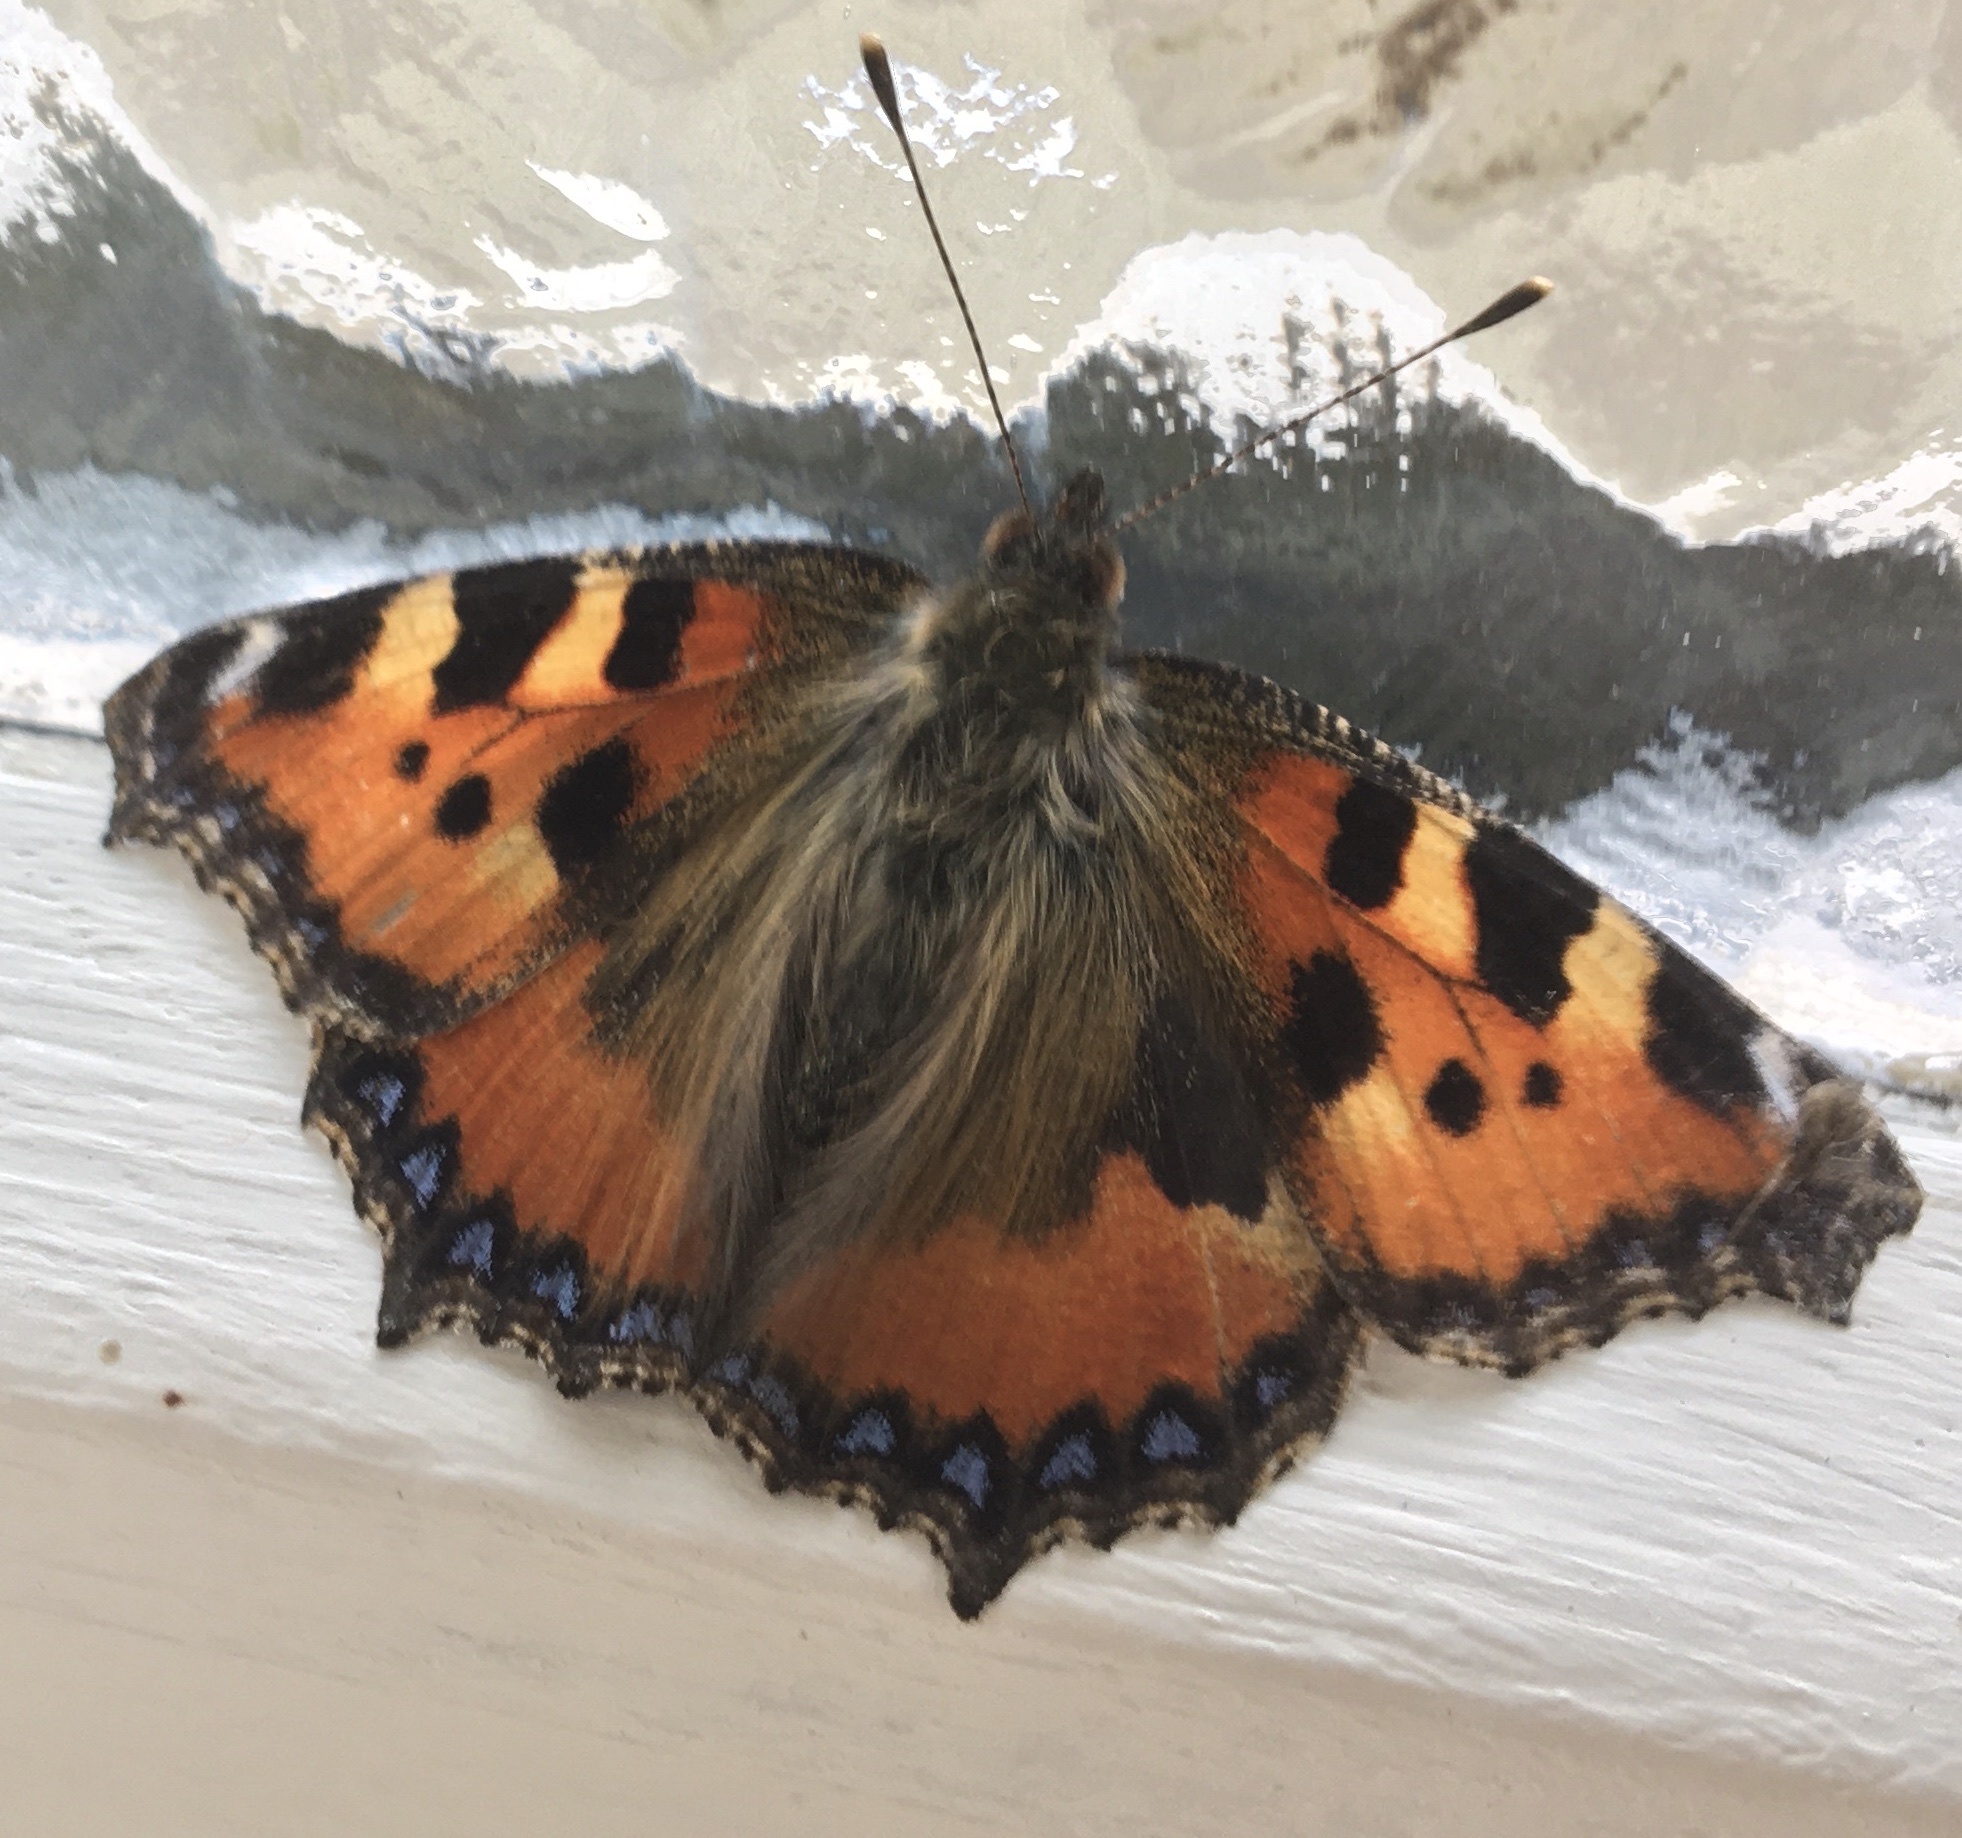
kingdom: Animalia
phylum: Arthropoda
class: Insecta
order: Lepidoptera
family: Nymphalidae
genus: Aglais
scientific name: Aglais urticae
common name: Small tortoiseshell
